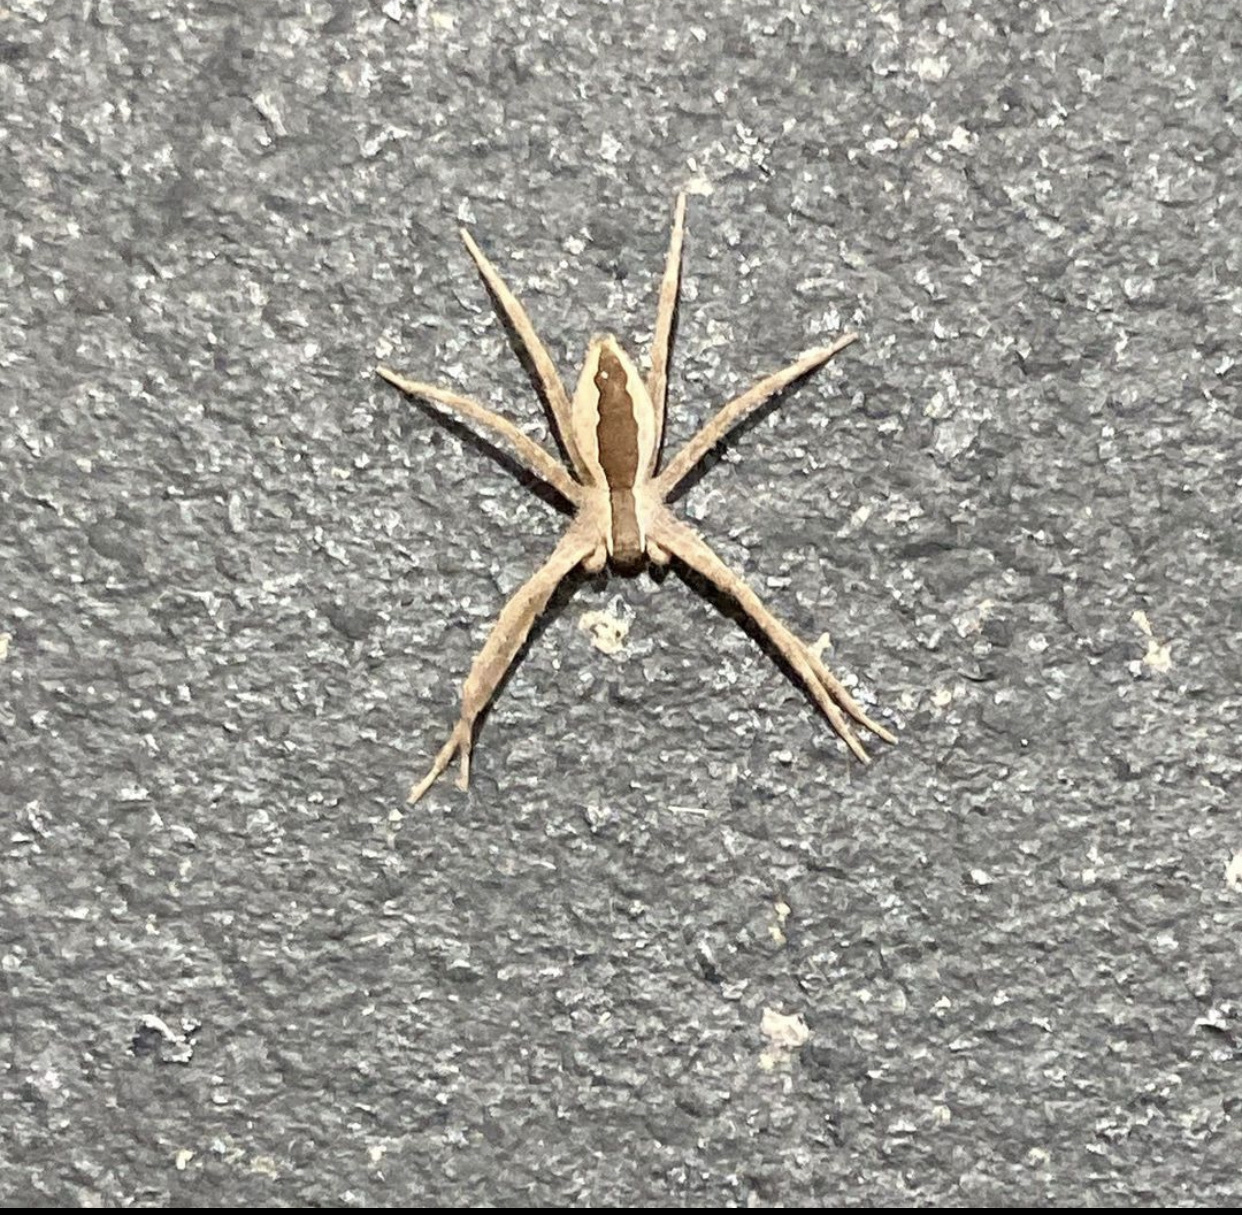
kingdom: Animalia
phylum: Arthropoda
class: Arachnida
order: Araneae
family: Pisauridae
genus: Pisaurina
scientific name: Pisaurina mira
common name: American nursery web spider
